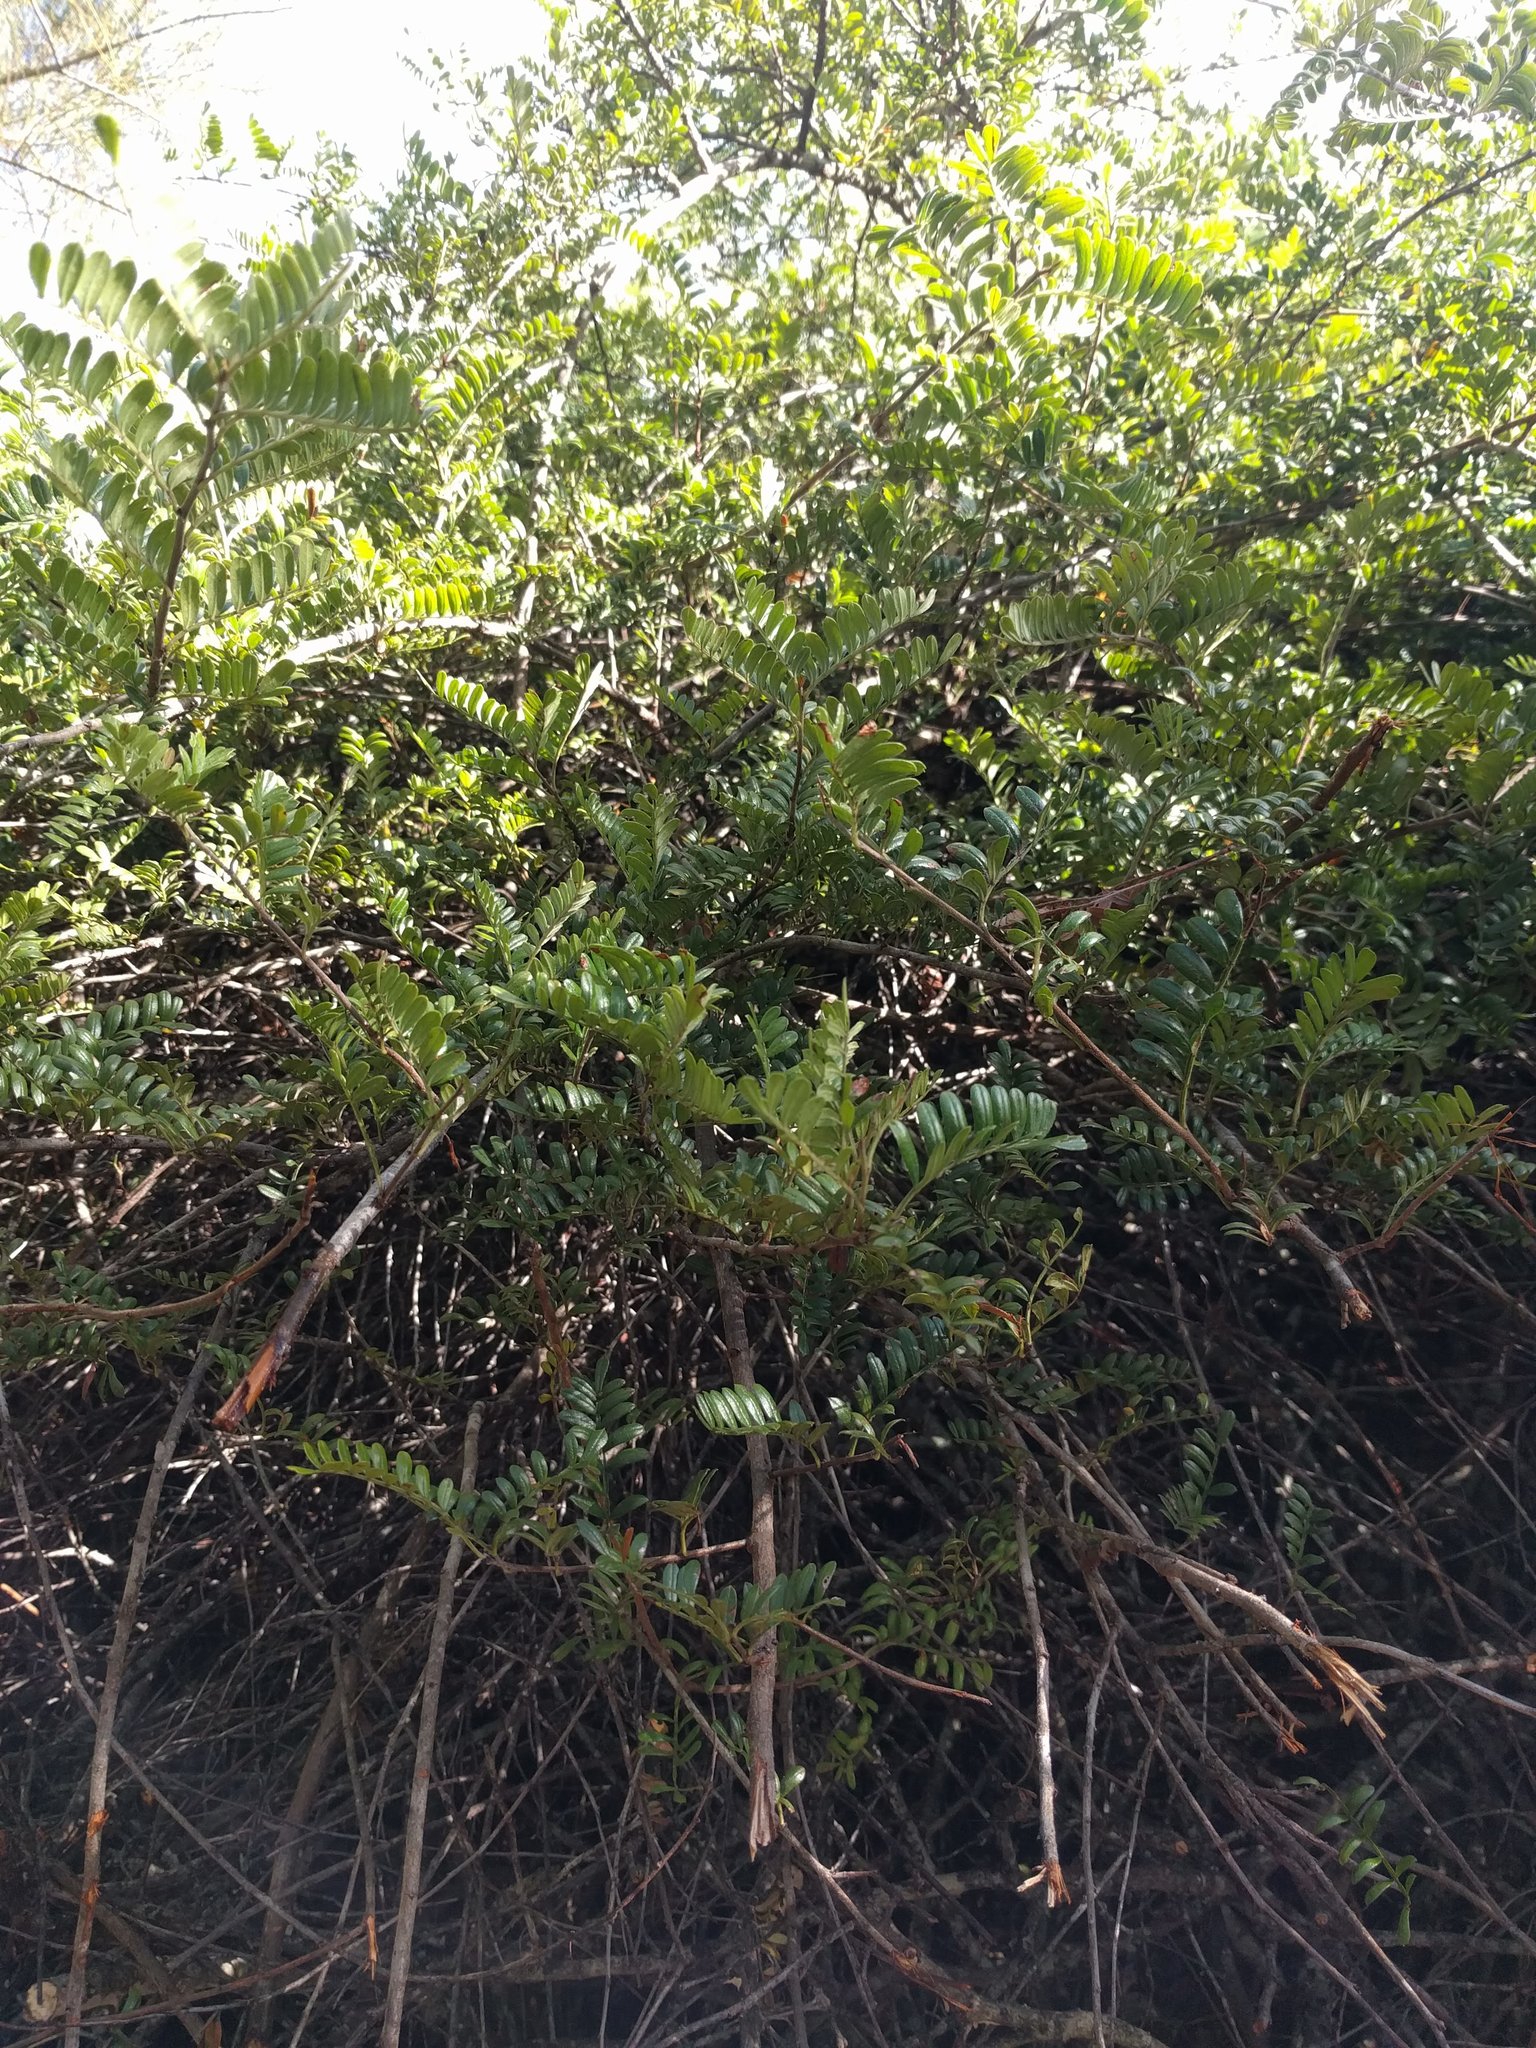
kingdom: Plantae
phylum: Tracheophyta
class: Magnoliopsida
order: Rosales
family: Rosaceae
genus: Osteomeles
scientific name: Osteomeles anthyllidifolia
